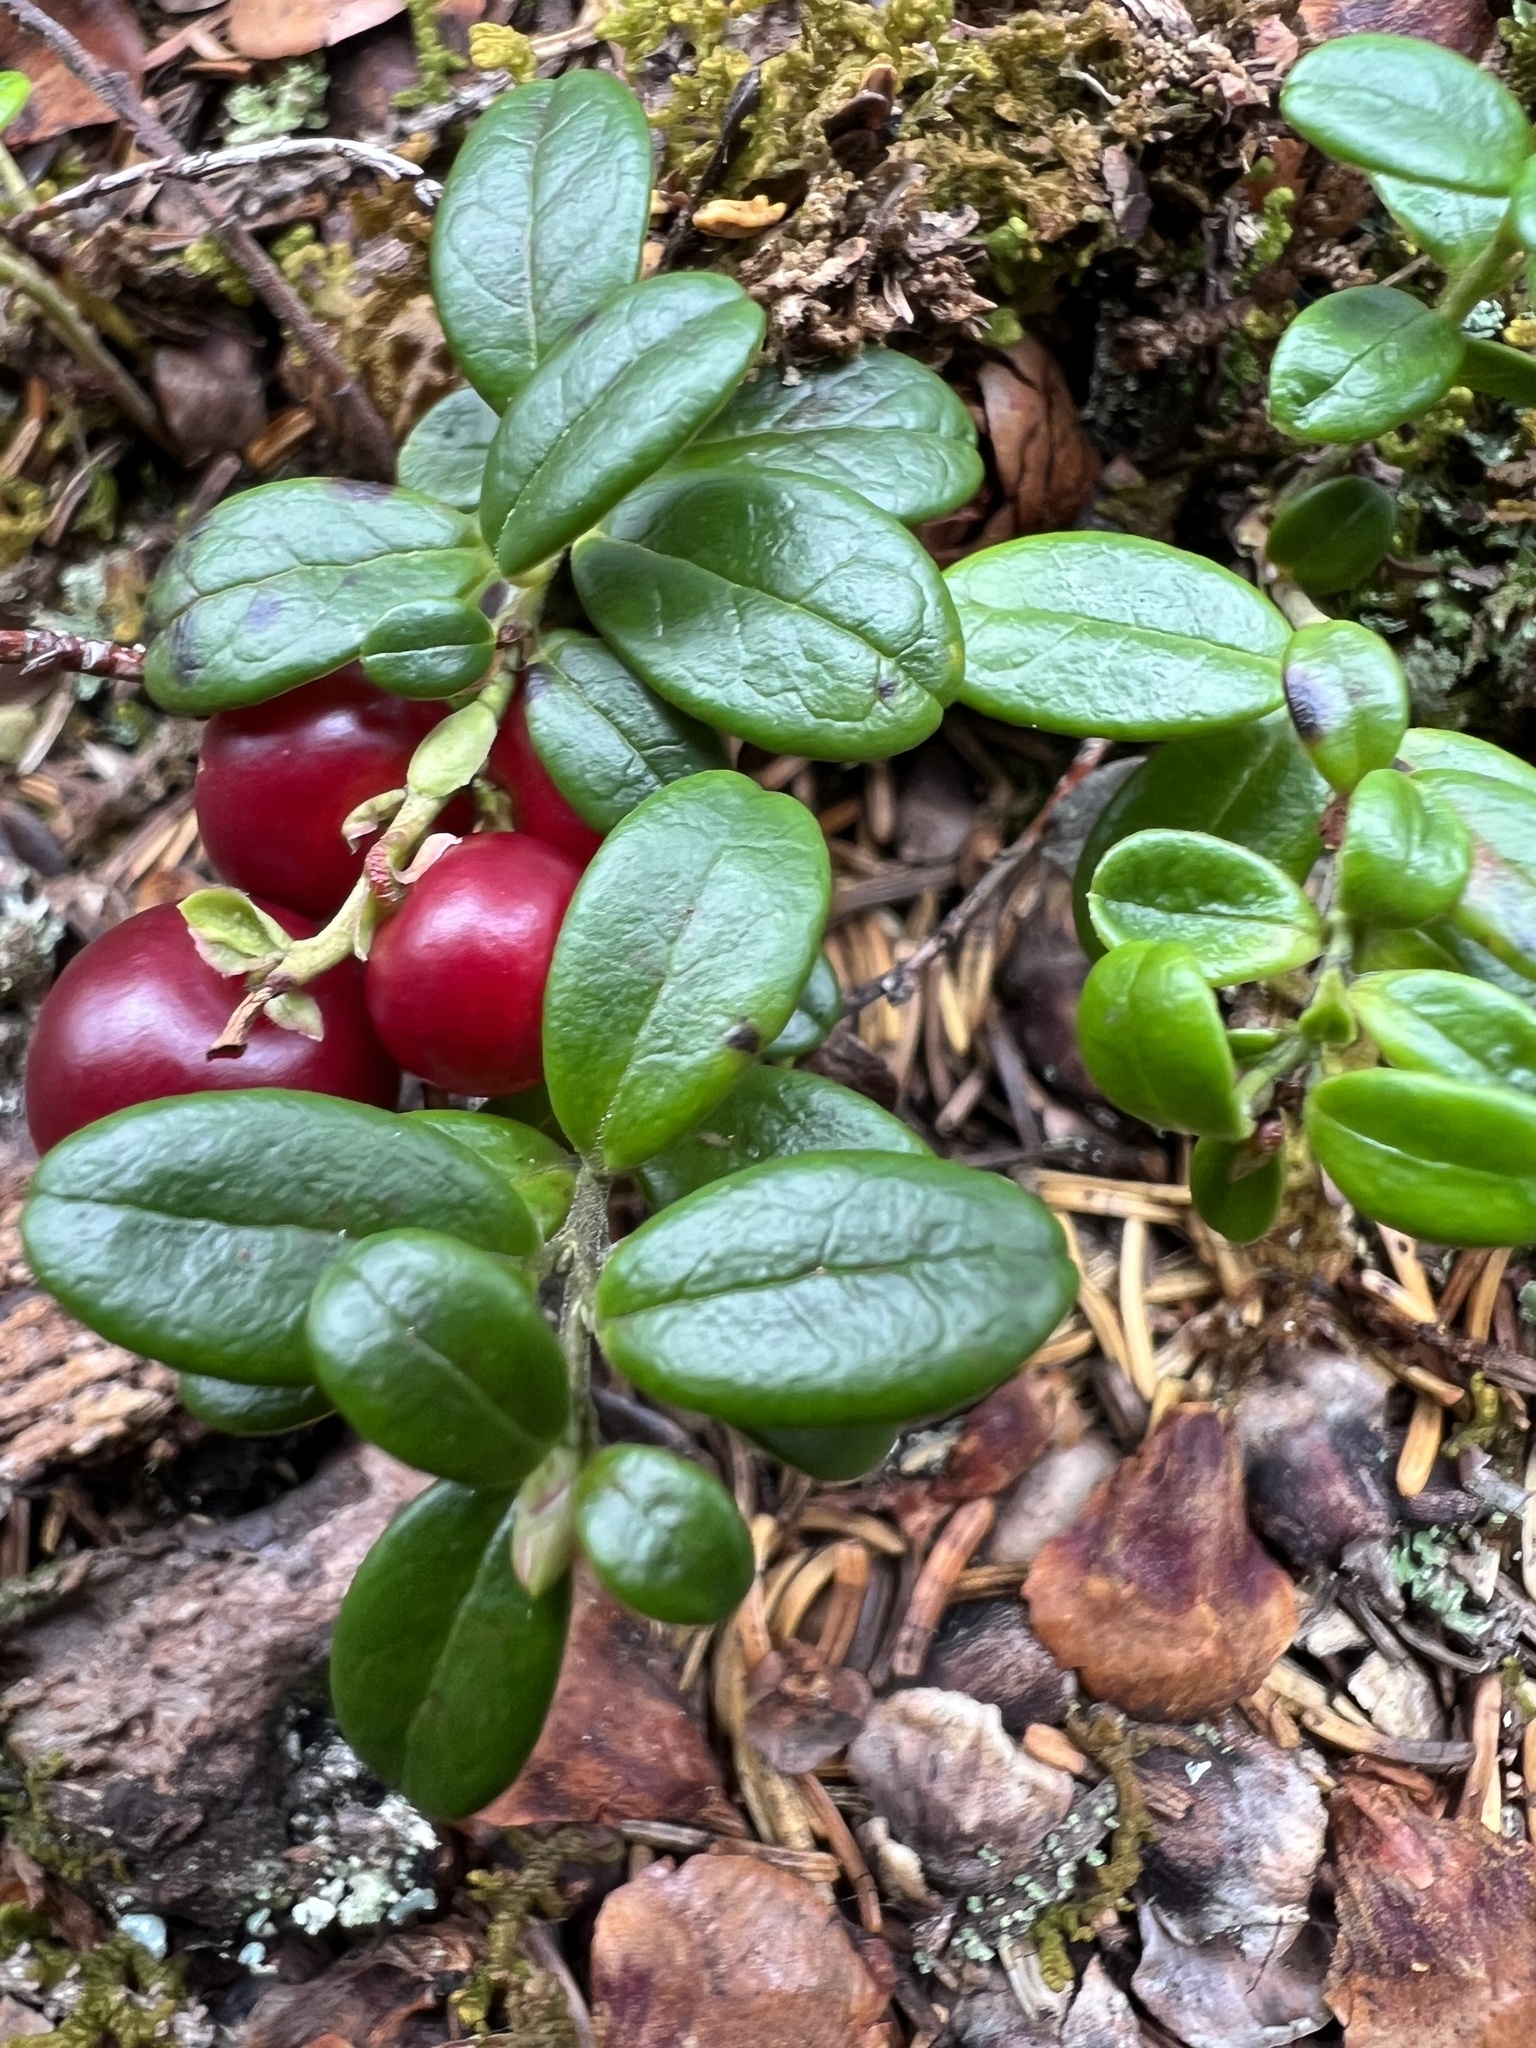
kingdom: Plantae
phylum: Tracheophyta
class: Magnoliopsida
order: Ericales
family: Ericaceae
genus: Vaccinium
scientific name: Vaccinium vitis-idaea
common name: Cowberry
